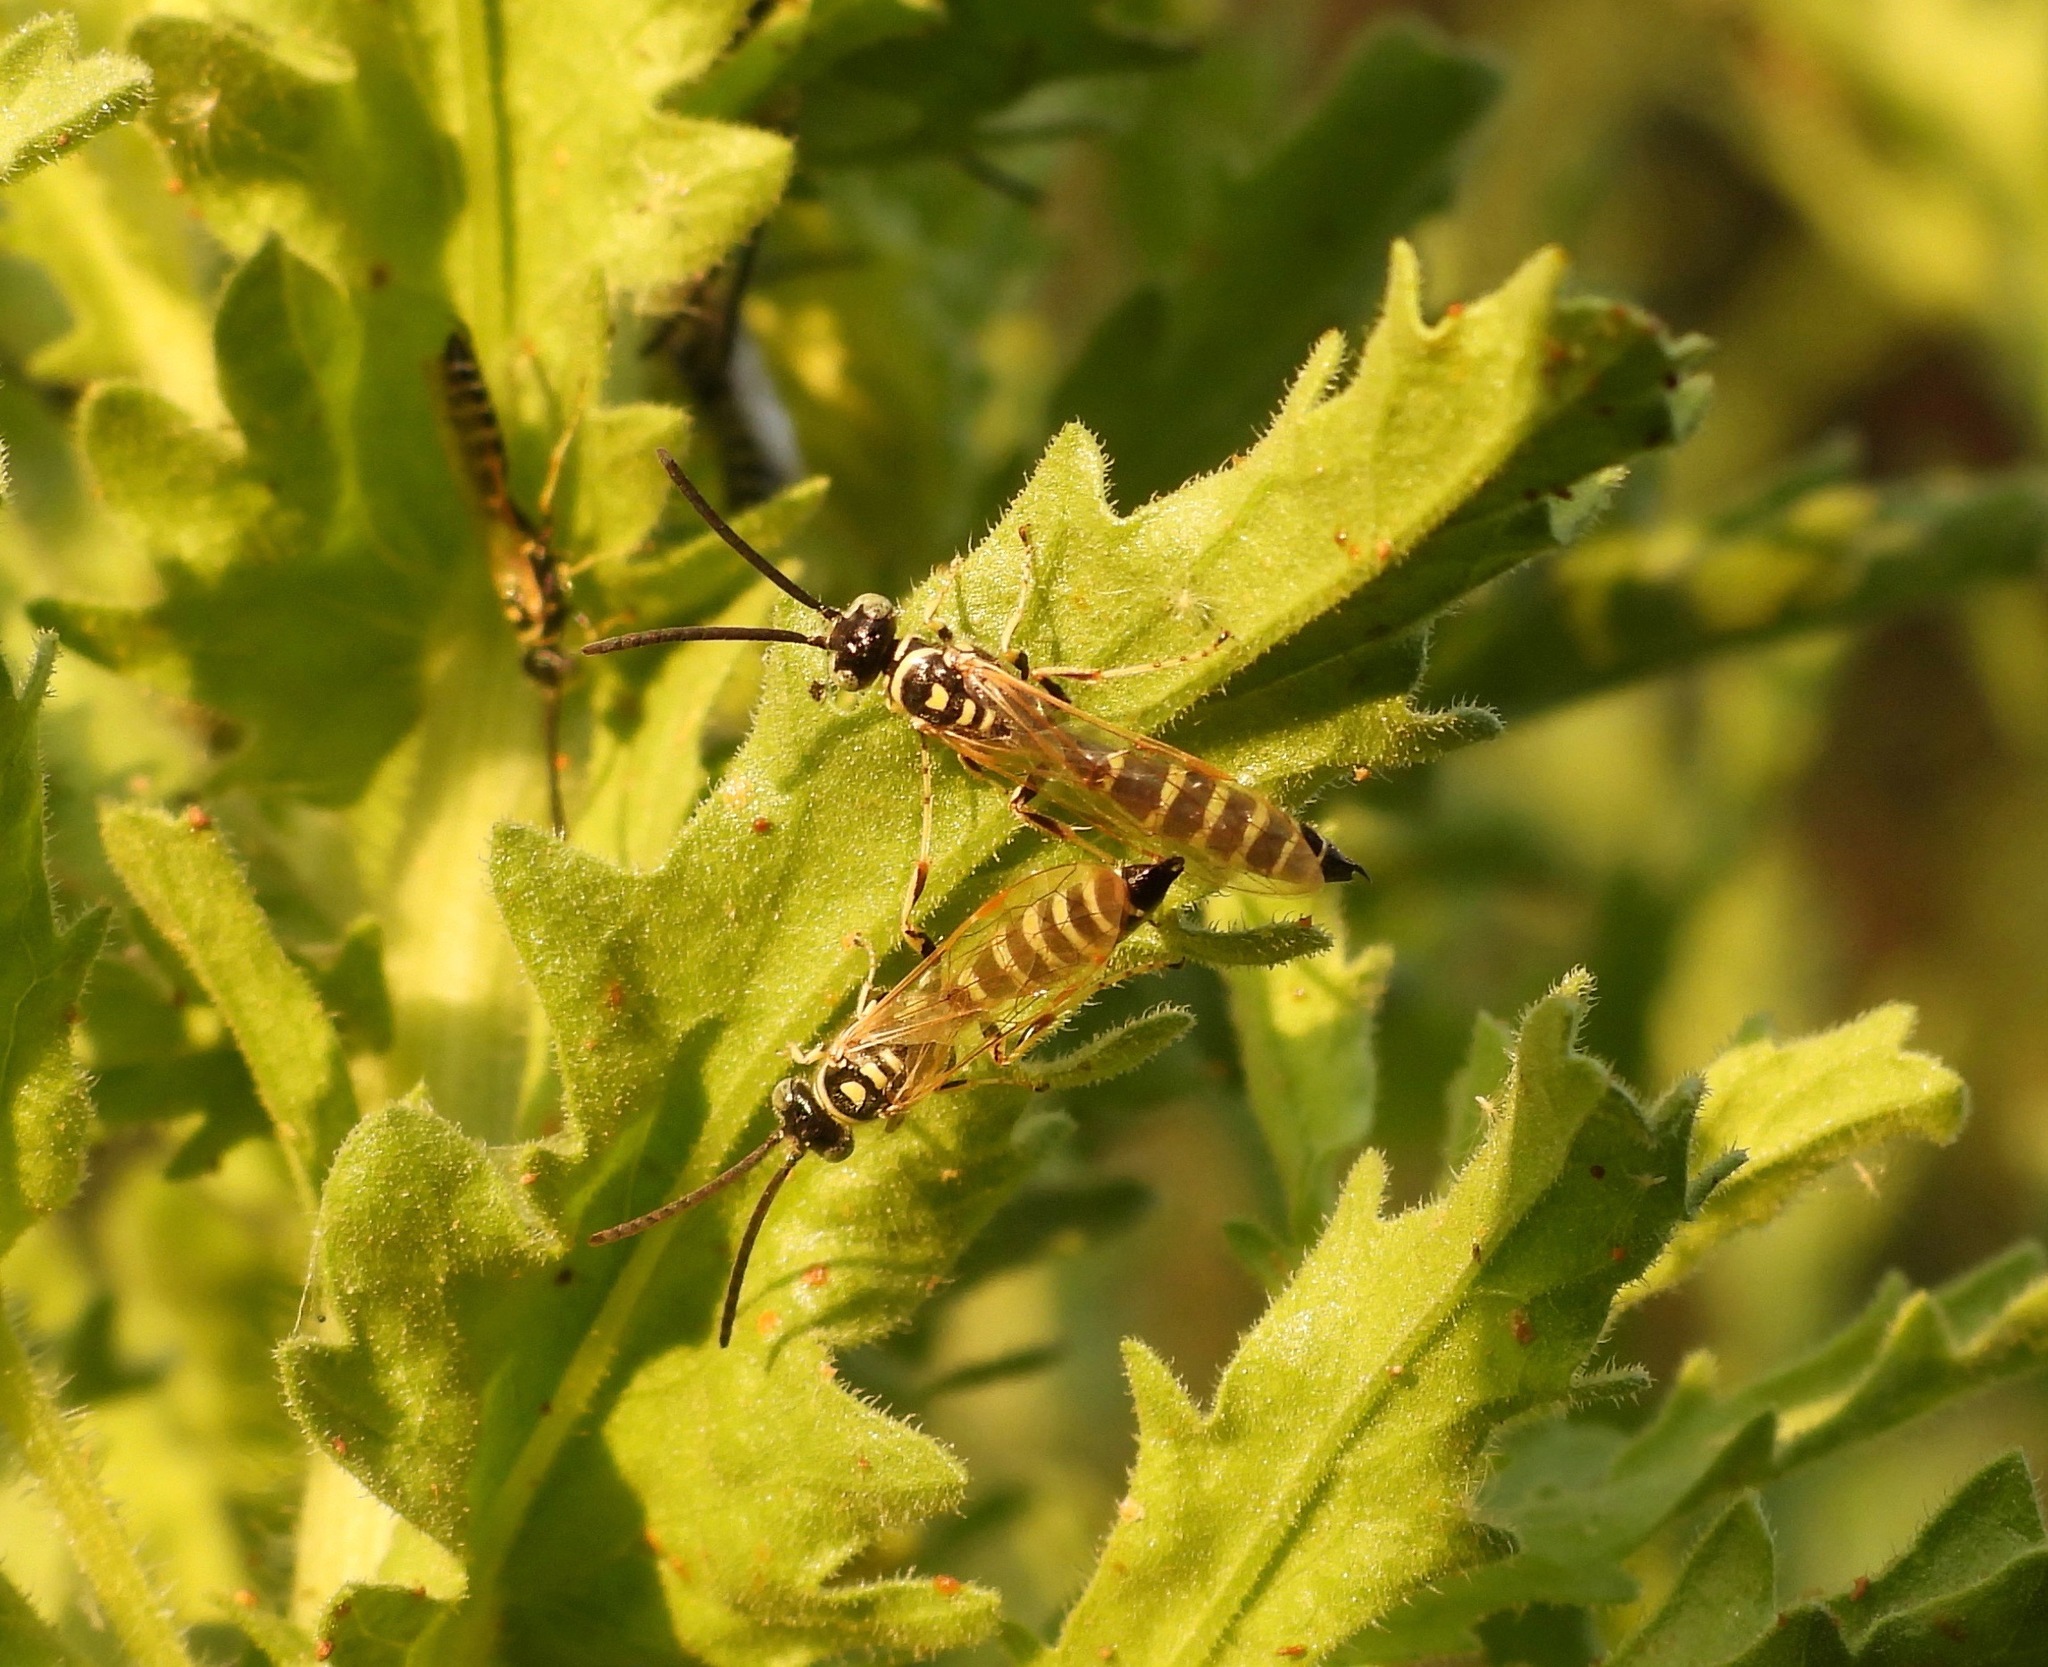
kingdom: Animalia
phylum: Arthropoda
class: Insecta
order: Hymenoptera
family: Tiphiidae
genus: Myzinum
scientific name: Myzinum frontalis
